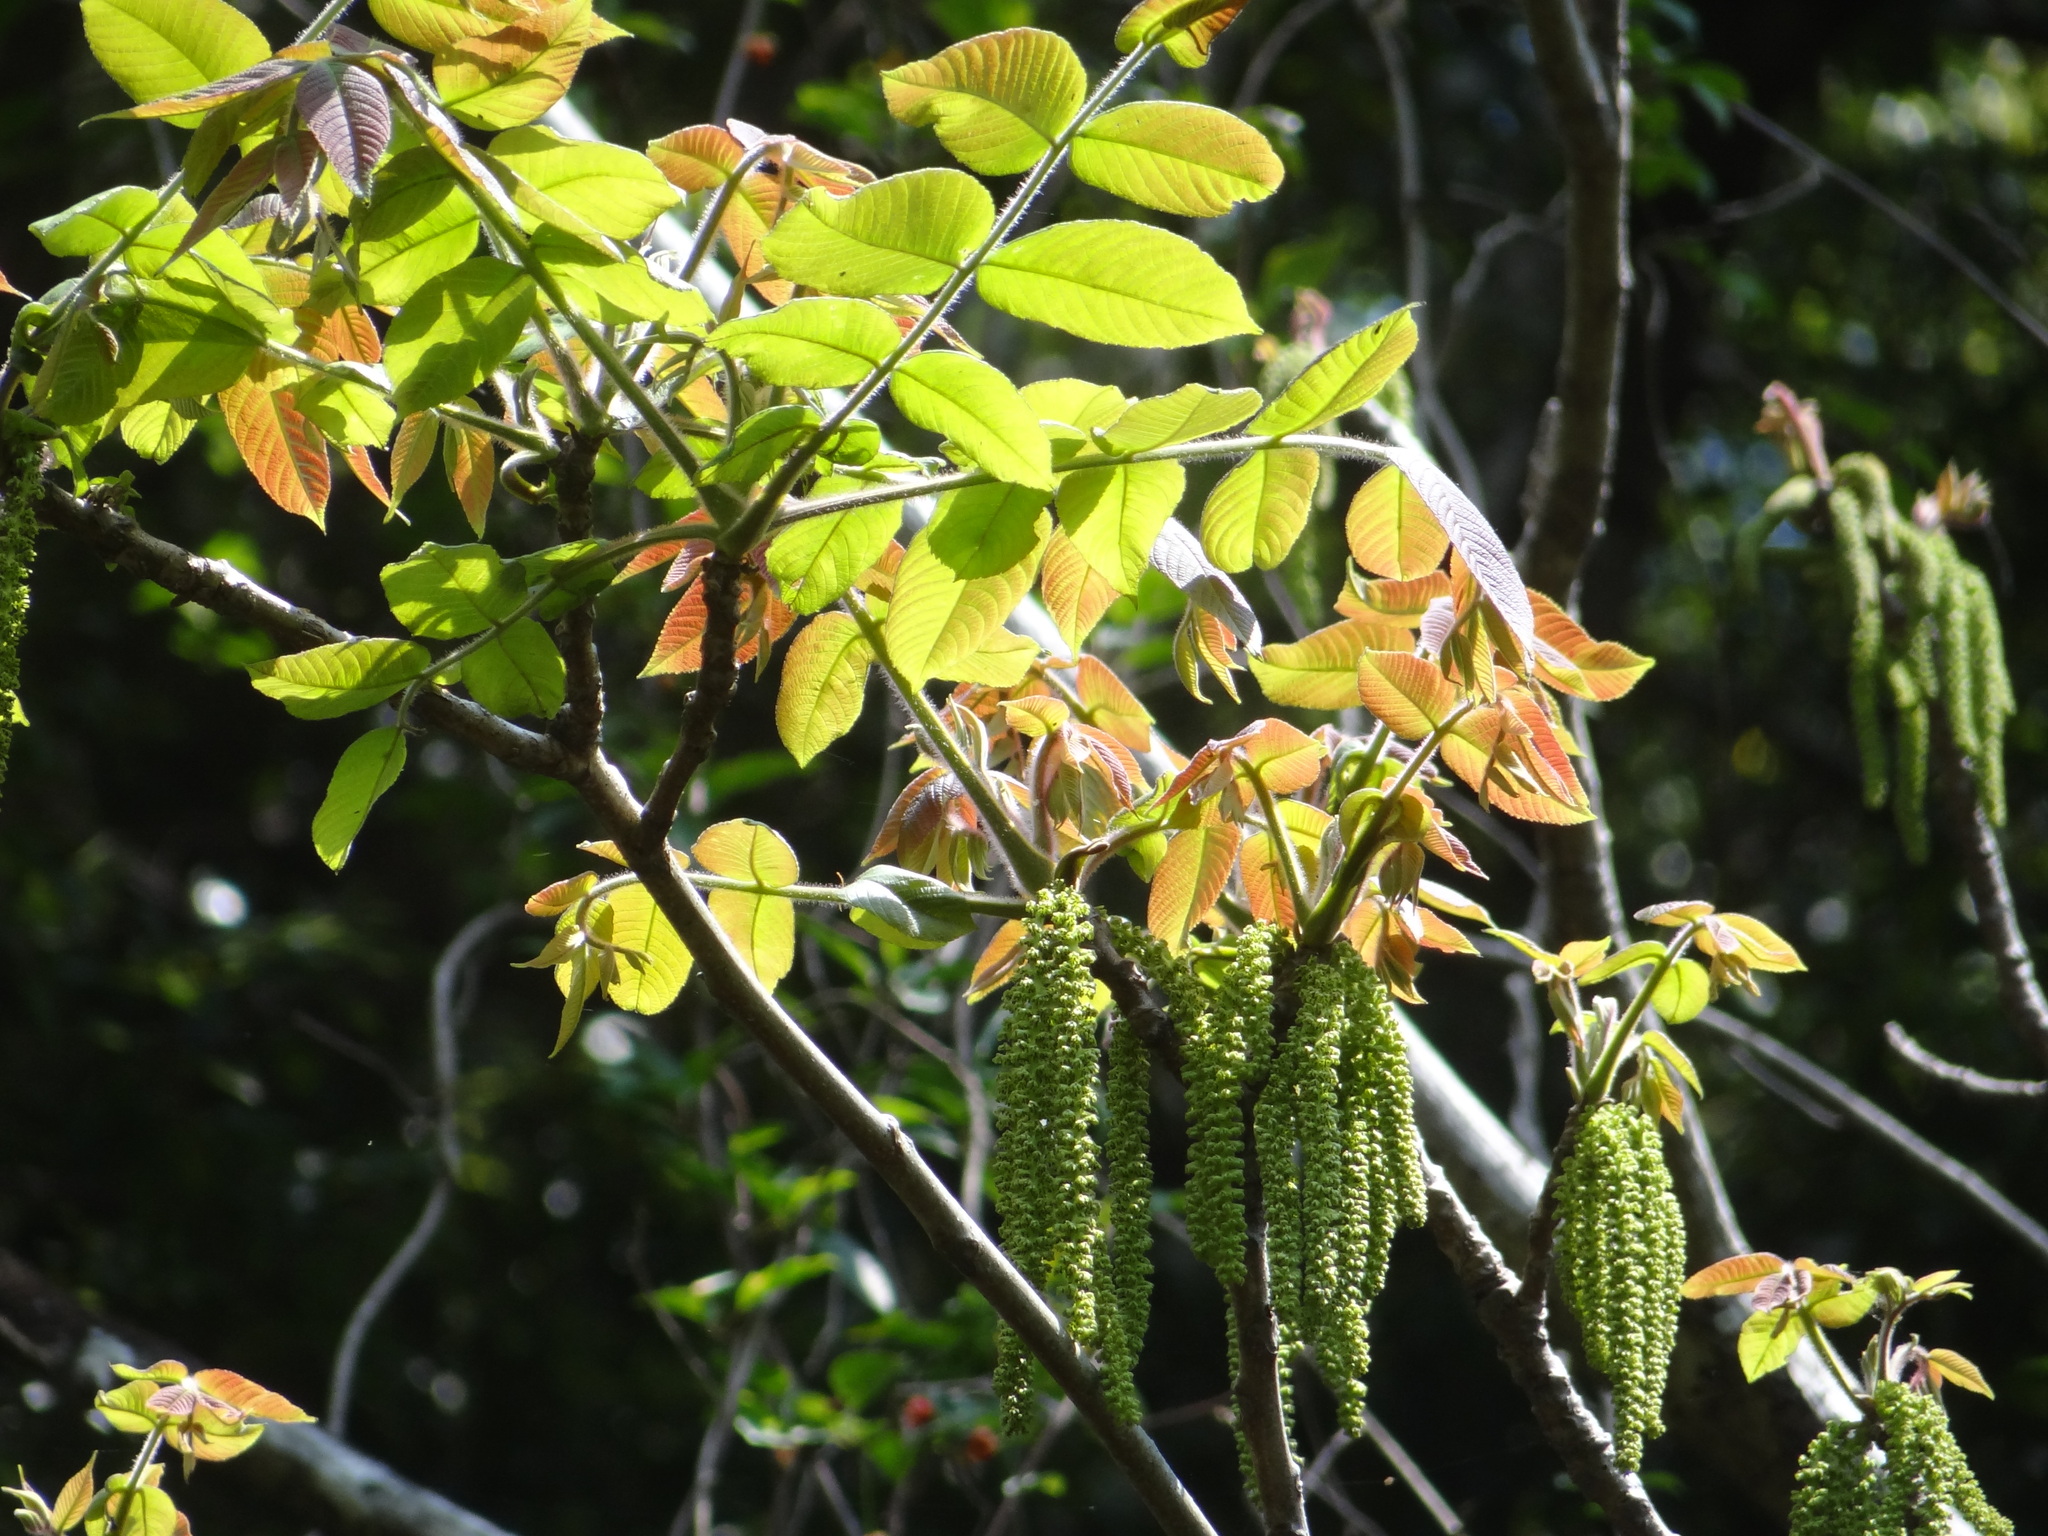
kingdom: Plantae
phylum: Tracheophyta
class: Magnoliopsida
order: Fagales
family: Juglandaceae
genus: Juglans
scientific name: Juglans mandshurica
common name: Manchurian walnut
